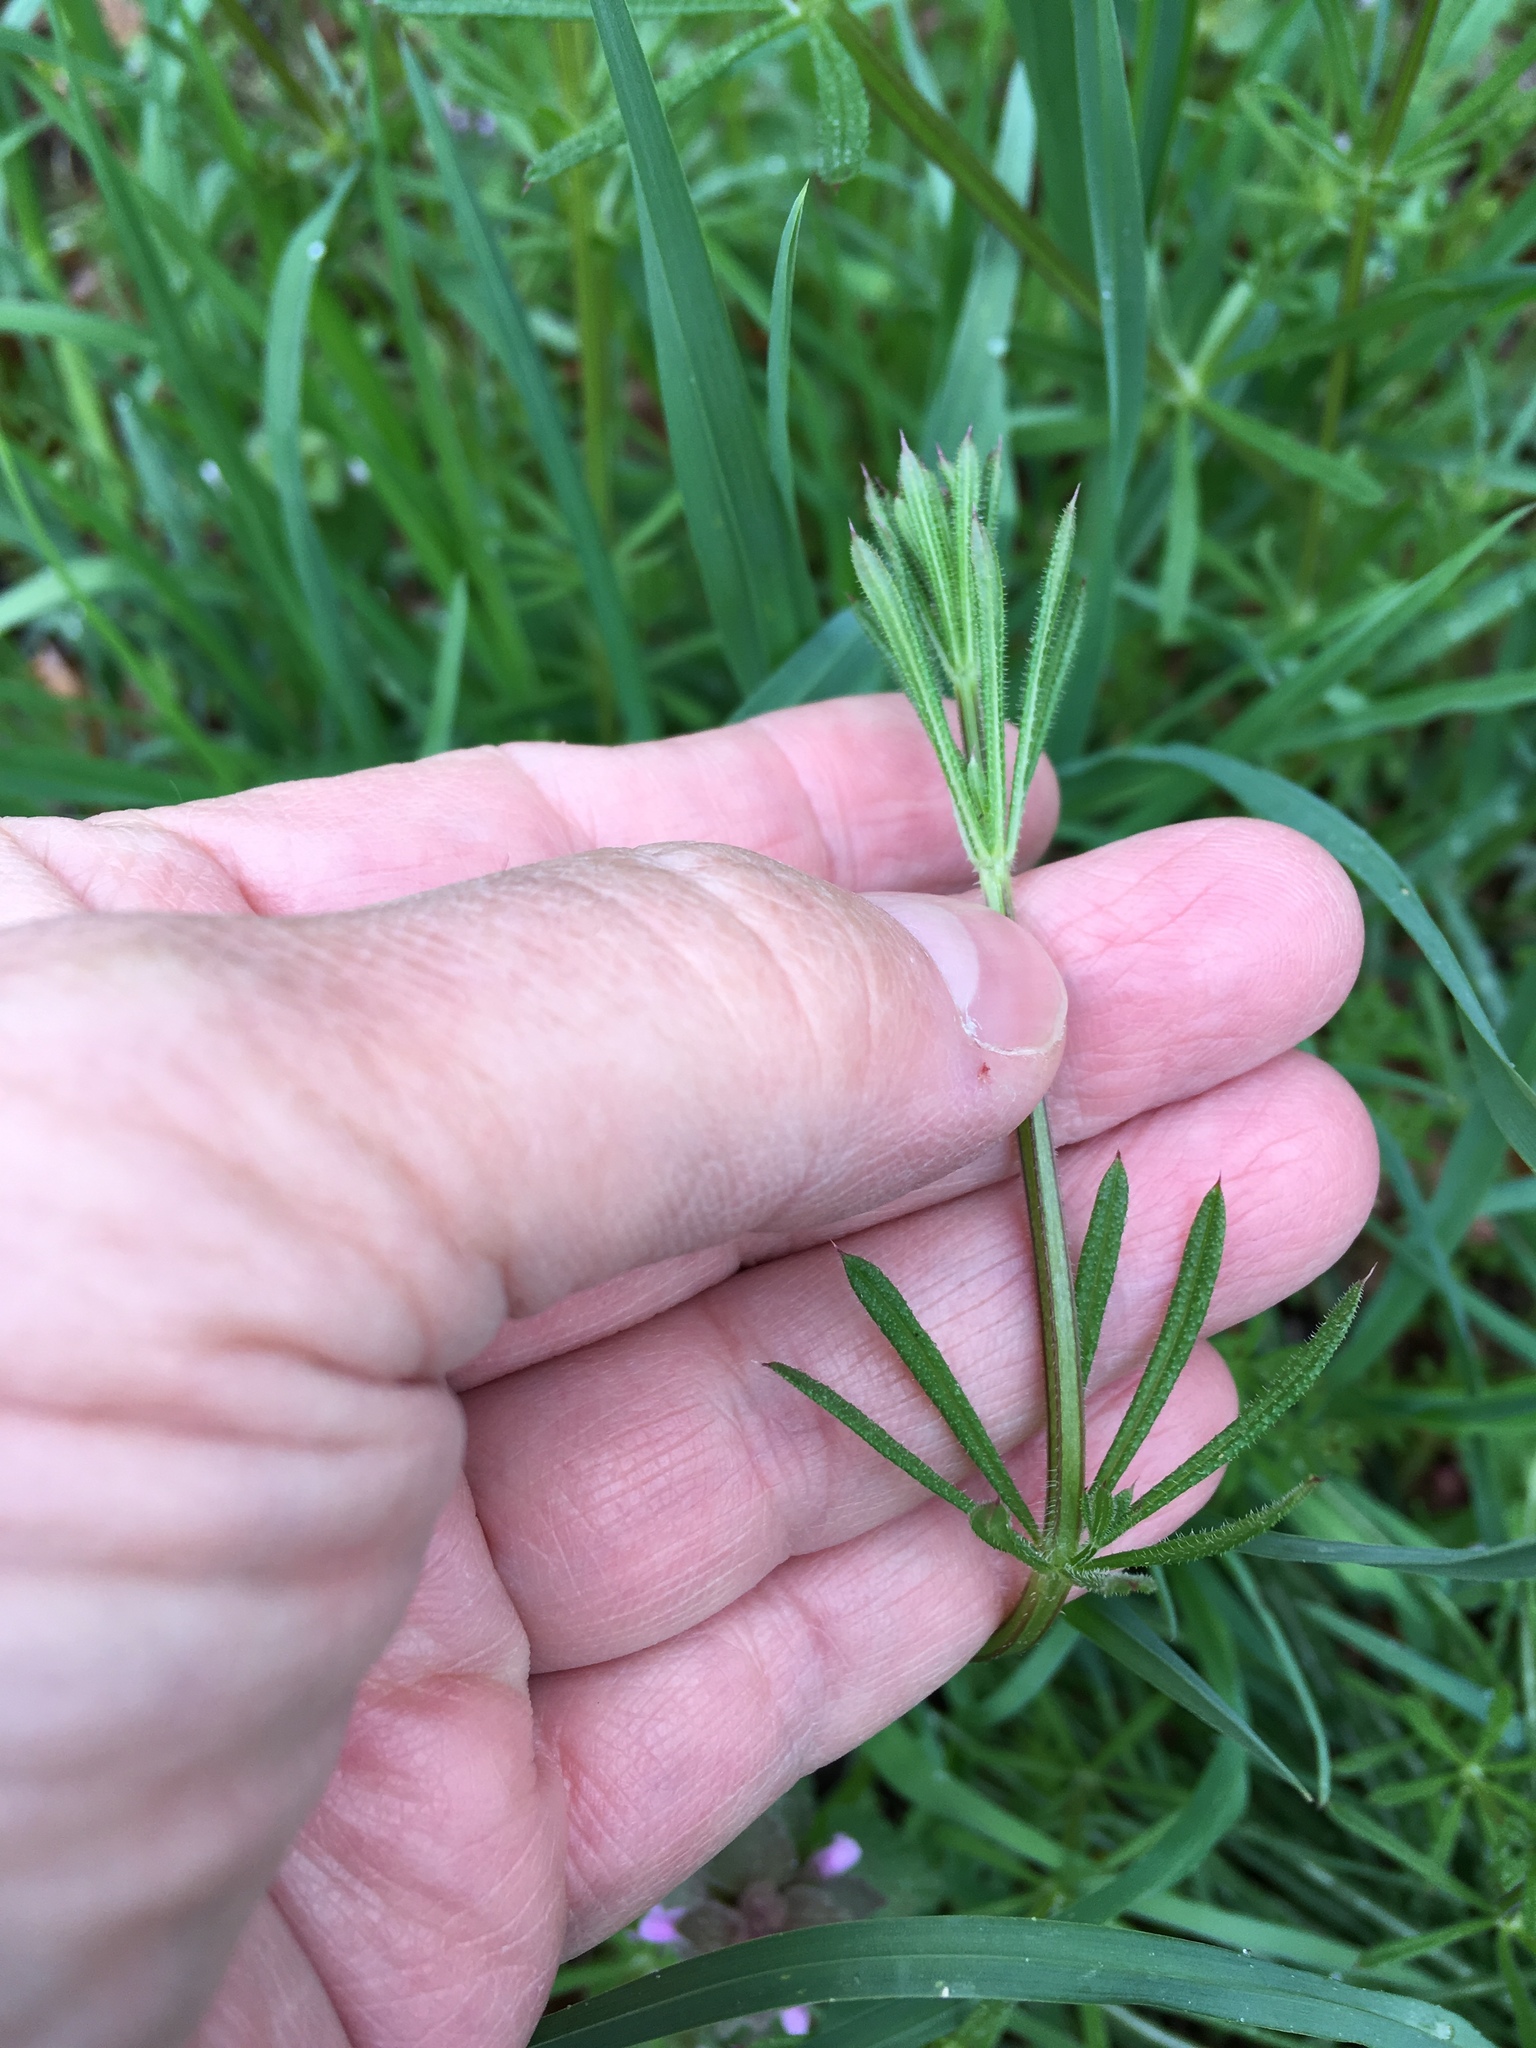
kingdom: Plantae
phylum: Tracheophyta
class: Magnoliopsida
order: Gentianales
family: Rubiaceae
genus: Galium
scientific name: Galium aparine
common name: Cleavers
